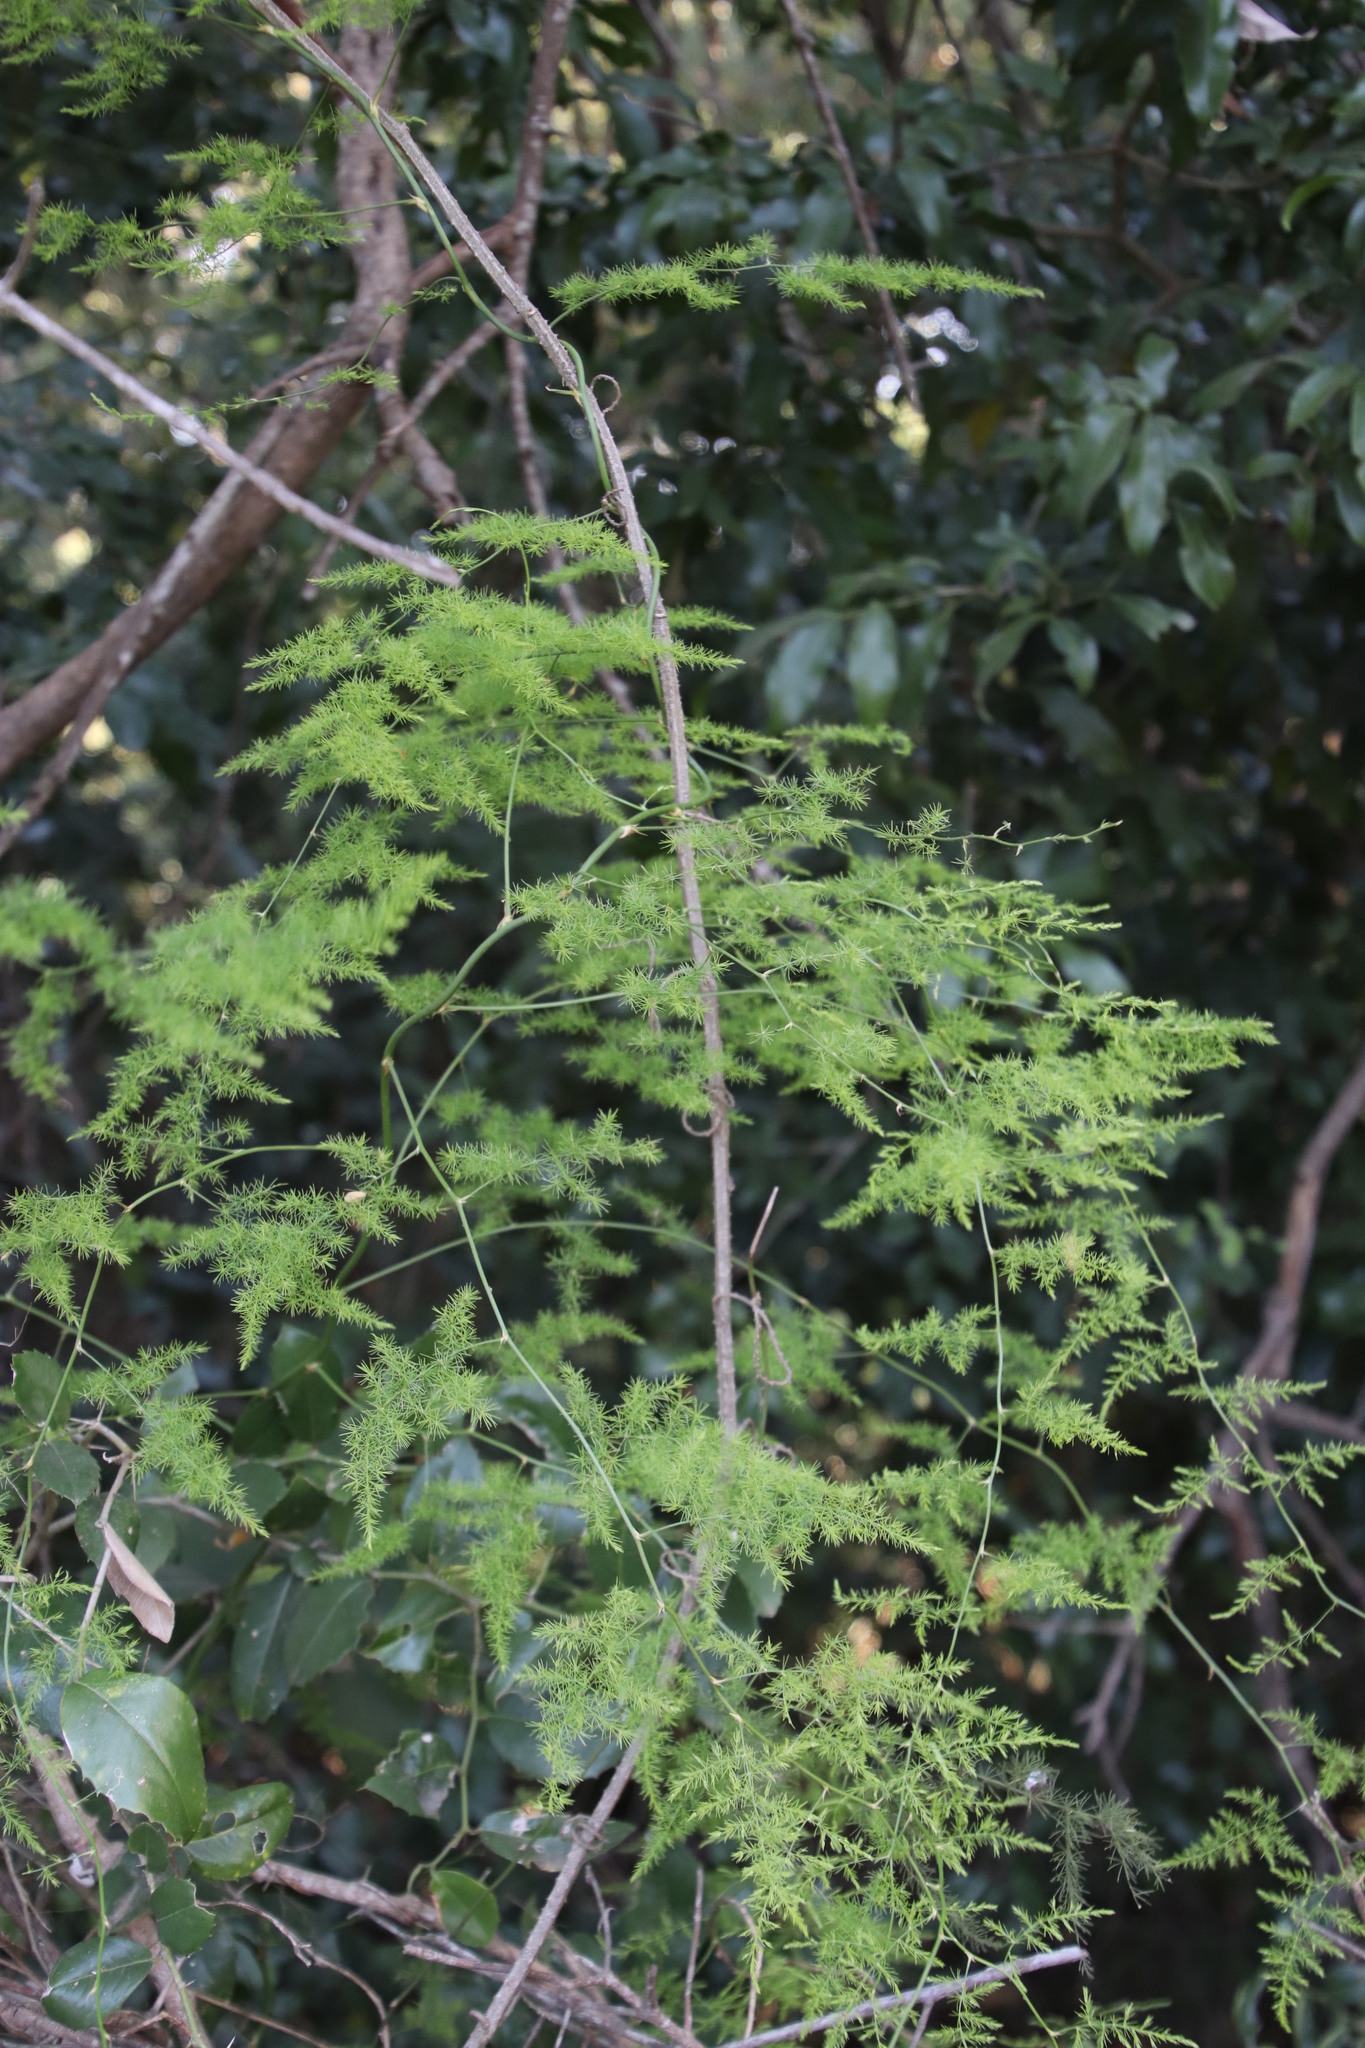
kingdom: Plantae
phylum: Tracheophyta
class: Liliopsida
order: Asparagales
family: Asparagaceae
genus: Asparagus
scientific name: Asparagus setaceus
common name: Common asparagus fern
